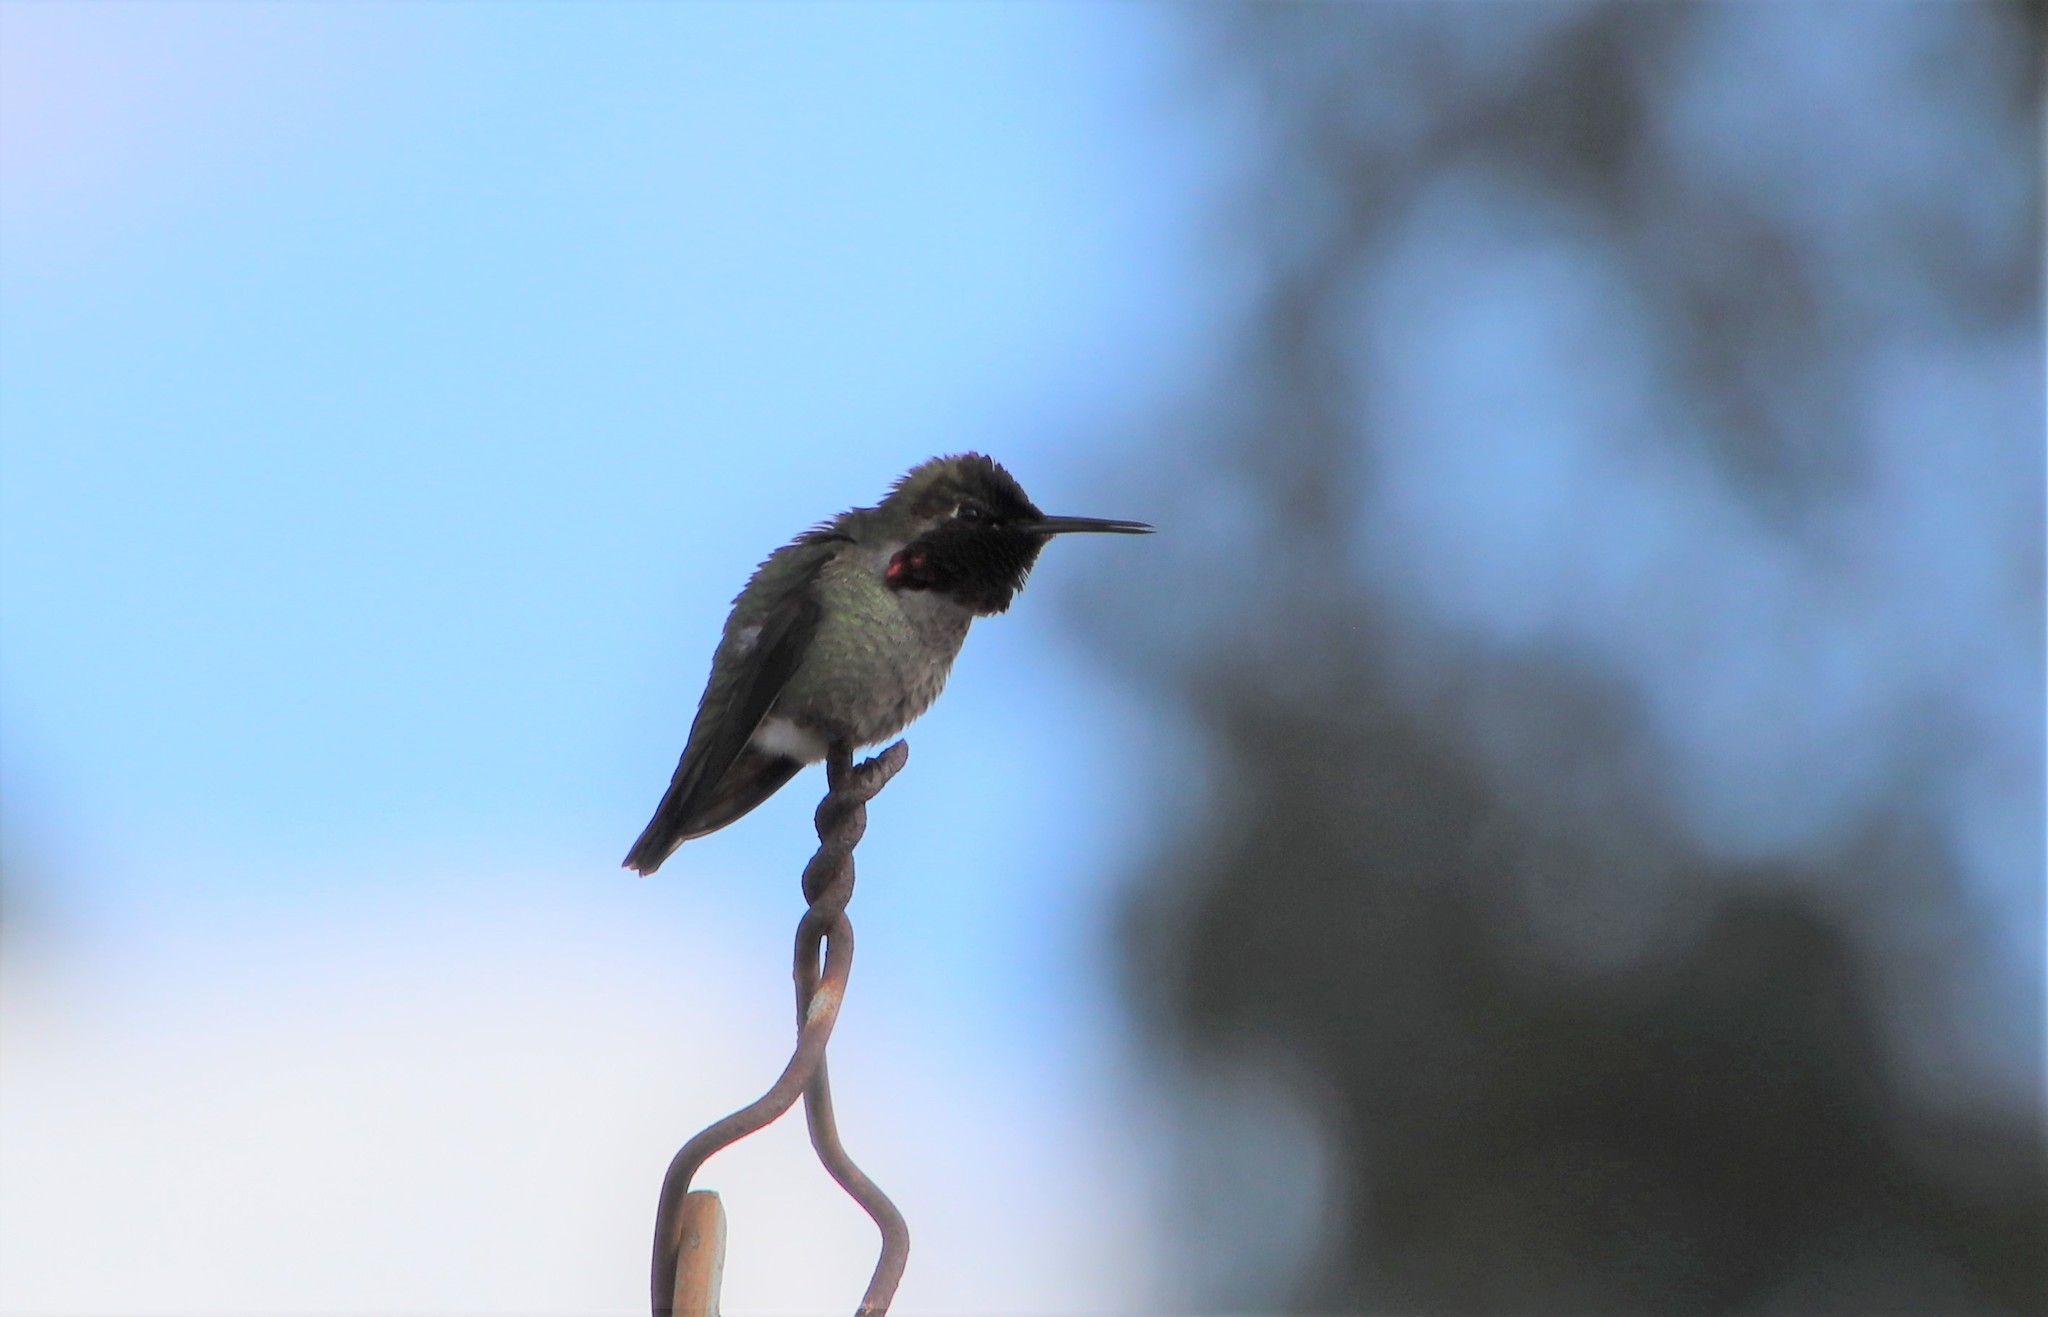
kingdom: Animalia
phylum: Chordata
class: Aves
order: Apodiformes
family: Trochilidae
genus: Calypte
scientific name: Calypte anna
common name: Anna's hummingbird
